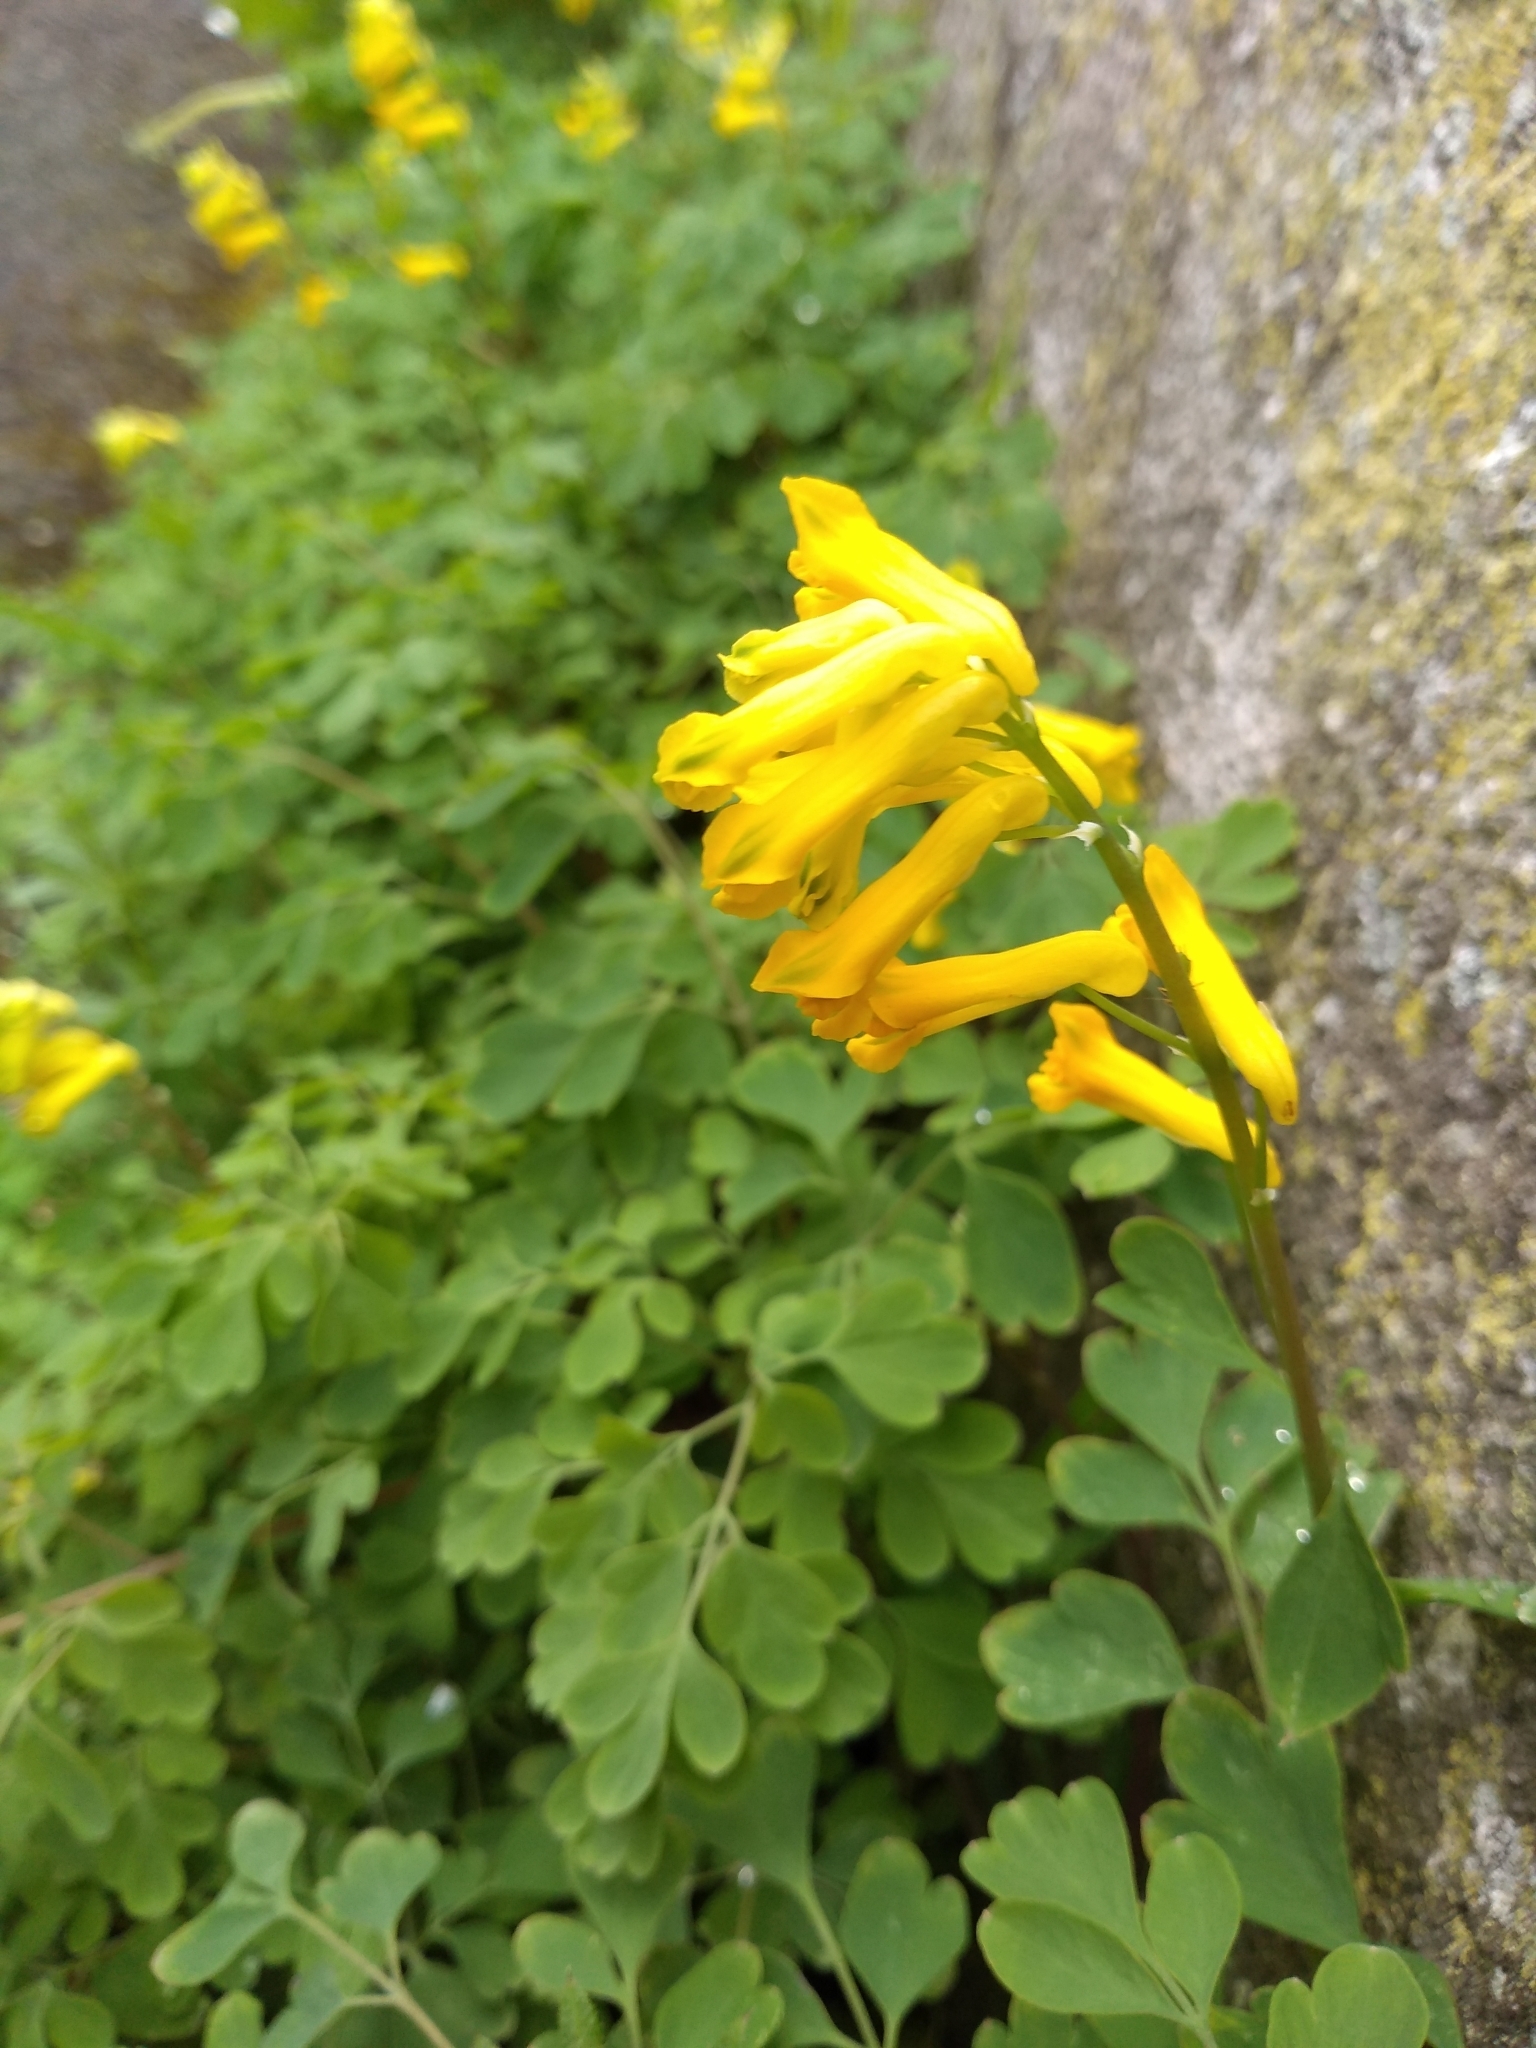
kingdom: Plantae
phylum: Tracheophyta
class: Magnoliopsida
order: Ranunculales
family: Papaveraceae
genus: Pseudofumaria
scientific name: Pseudofumaria lutea
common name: Yellow corydalis
